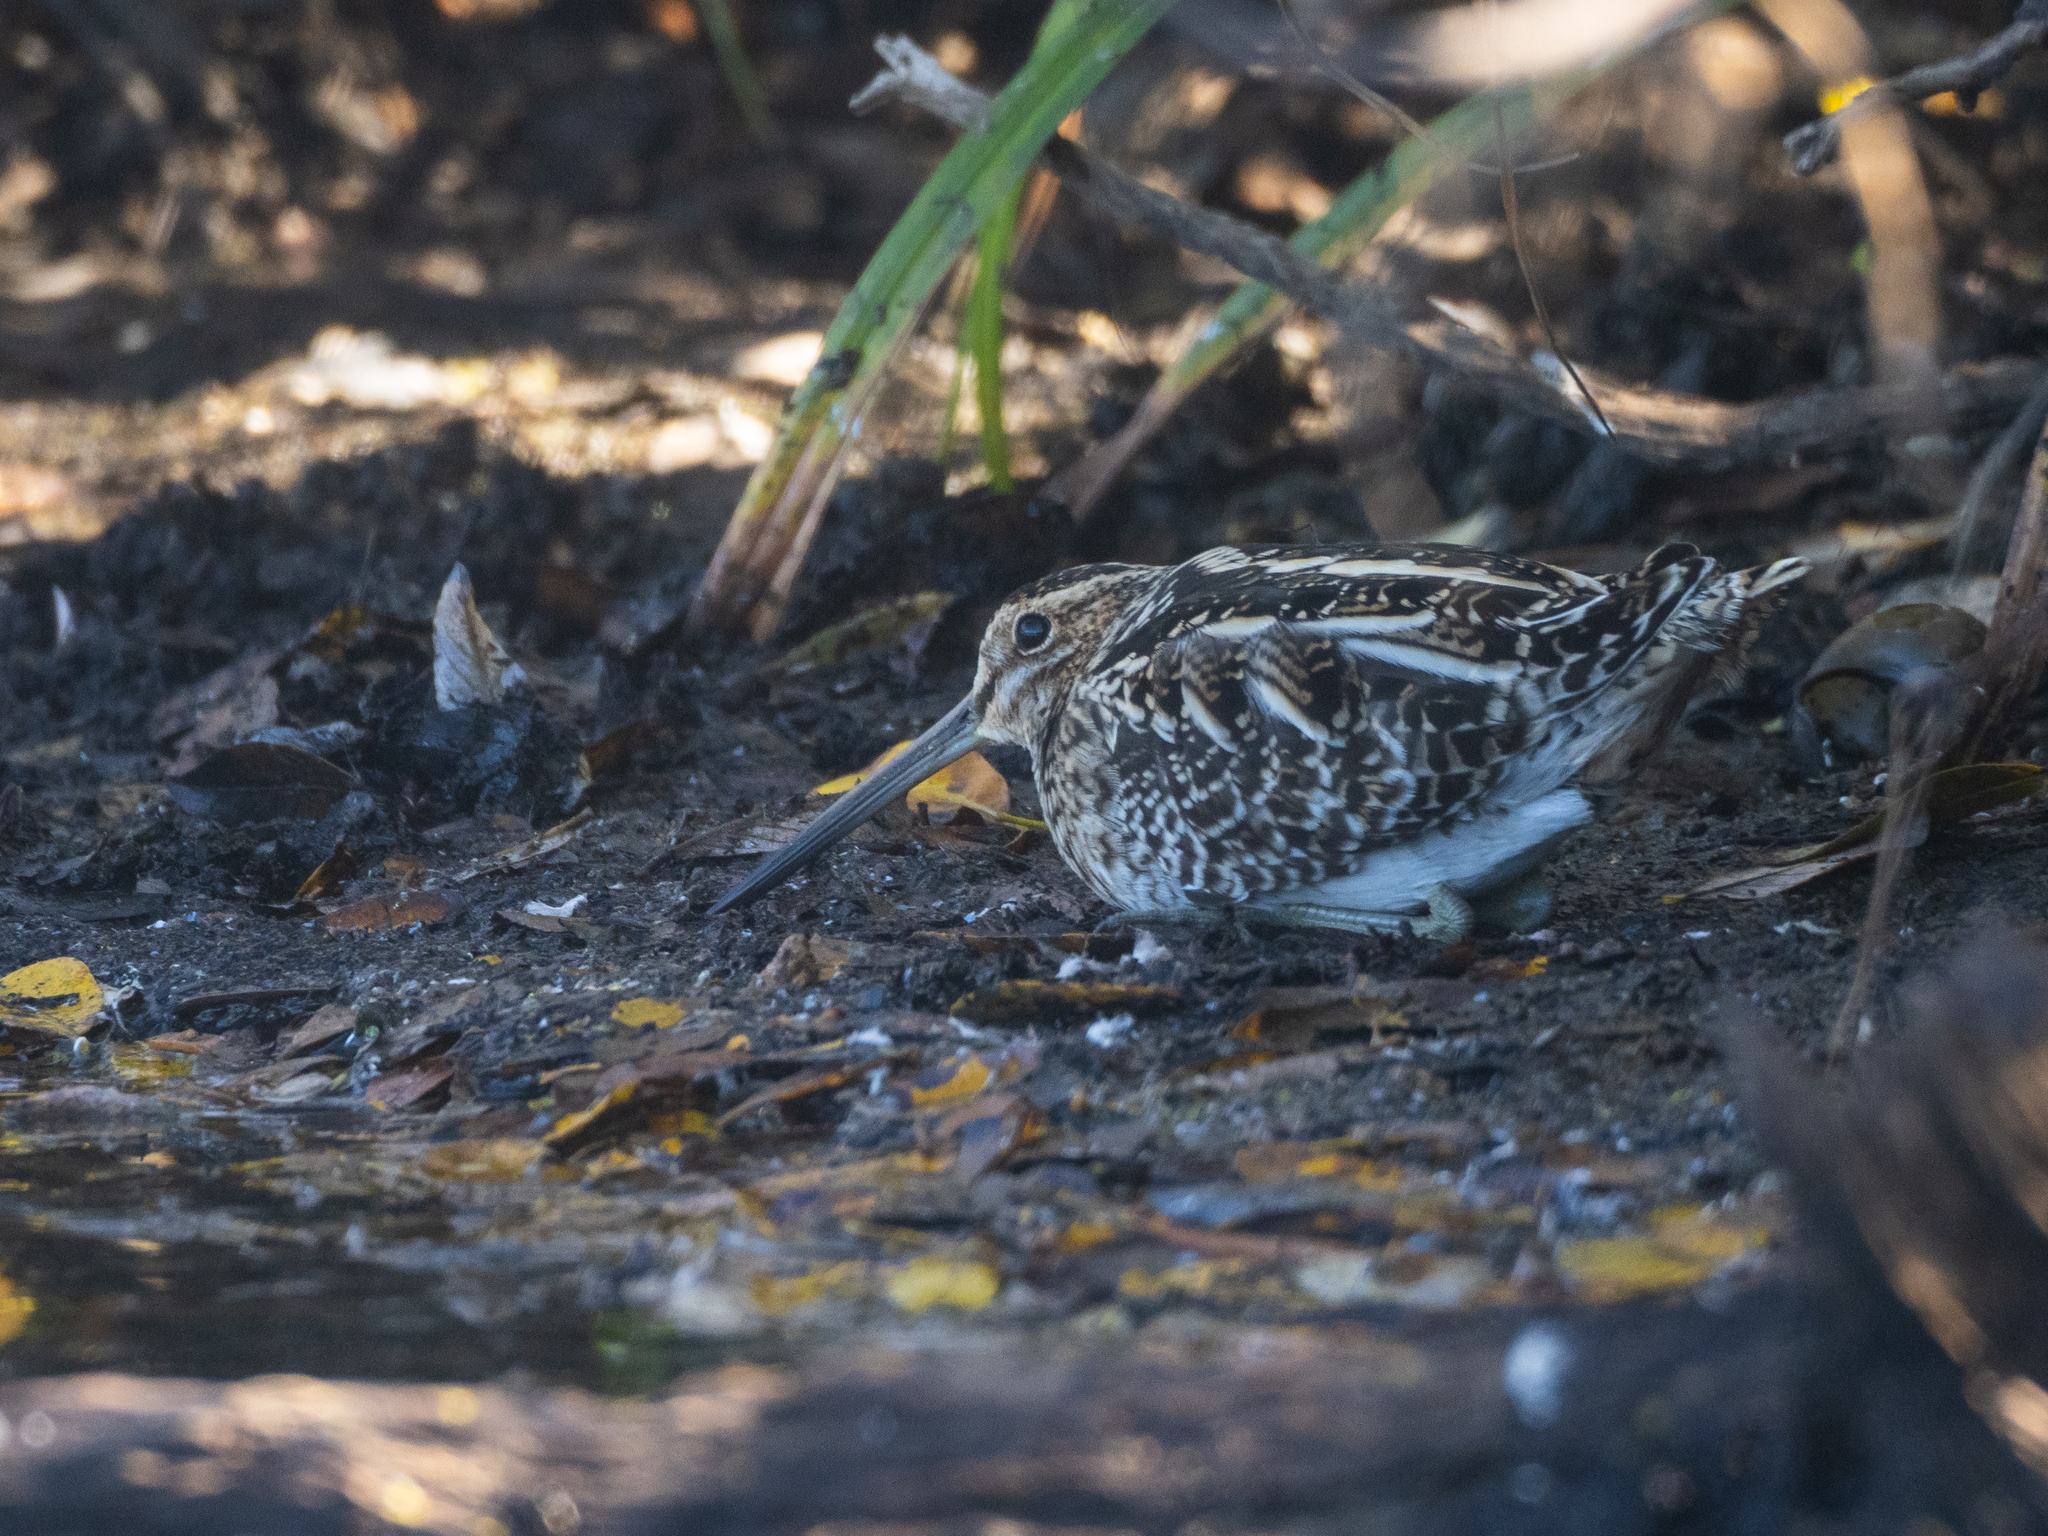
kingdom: Animalia
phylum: Chordata
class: Aves
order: Charadriiformes
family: Scolopacidae
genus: Gallinago
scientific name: Gallinago delicata
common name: Wilson's snipe
